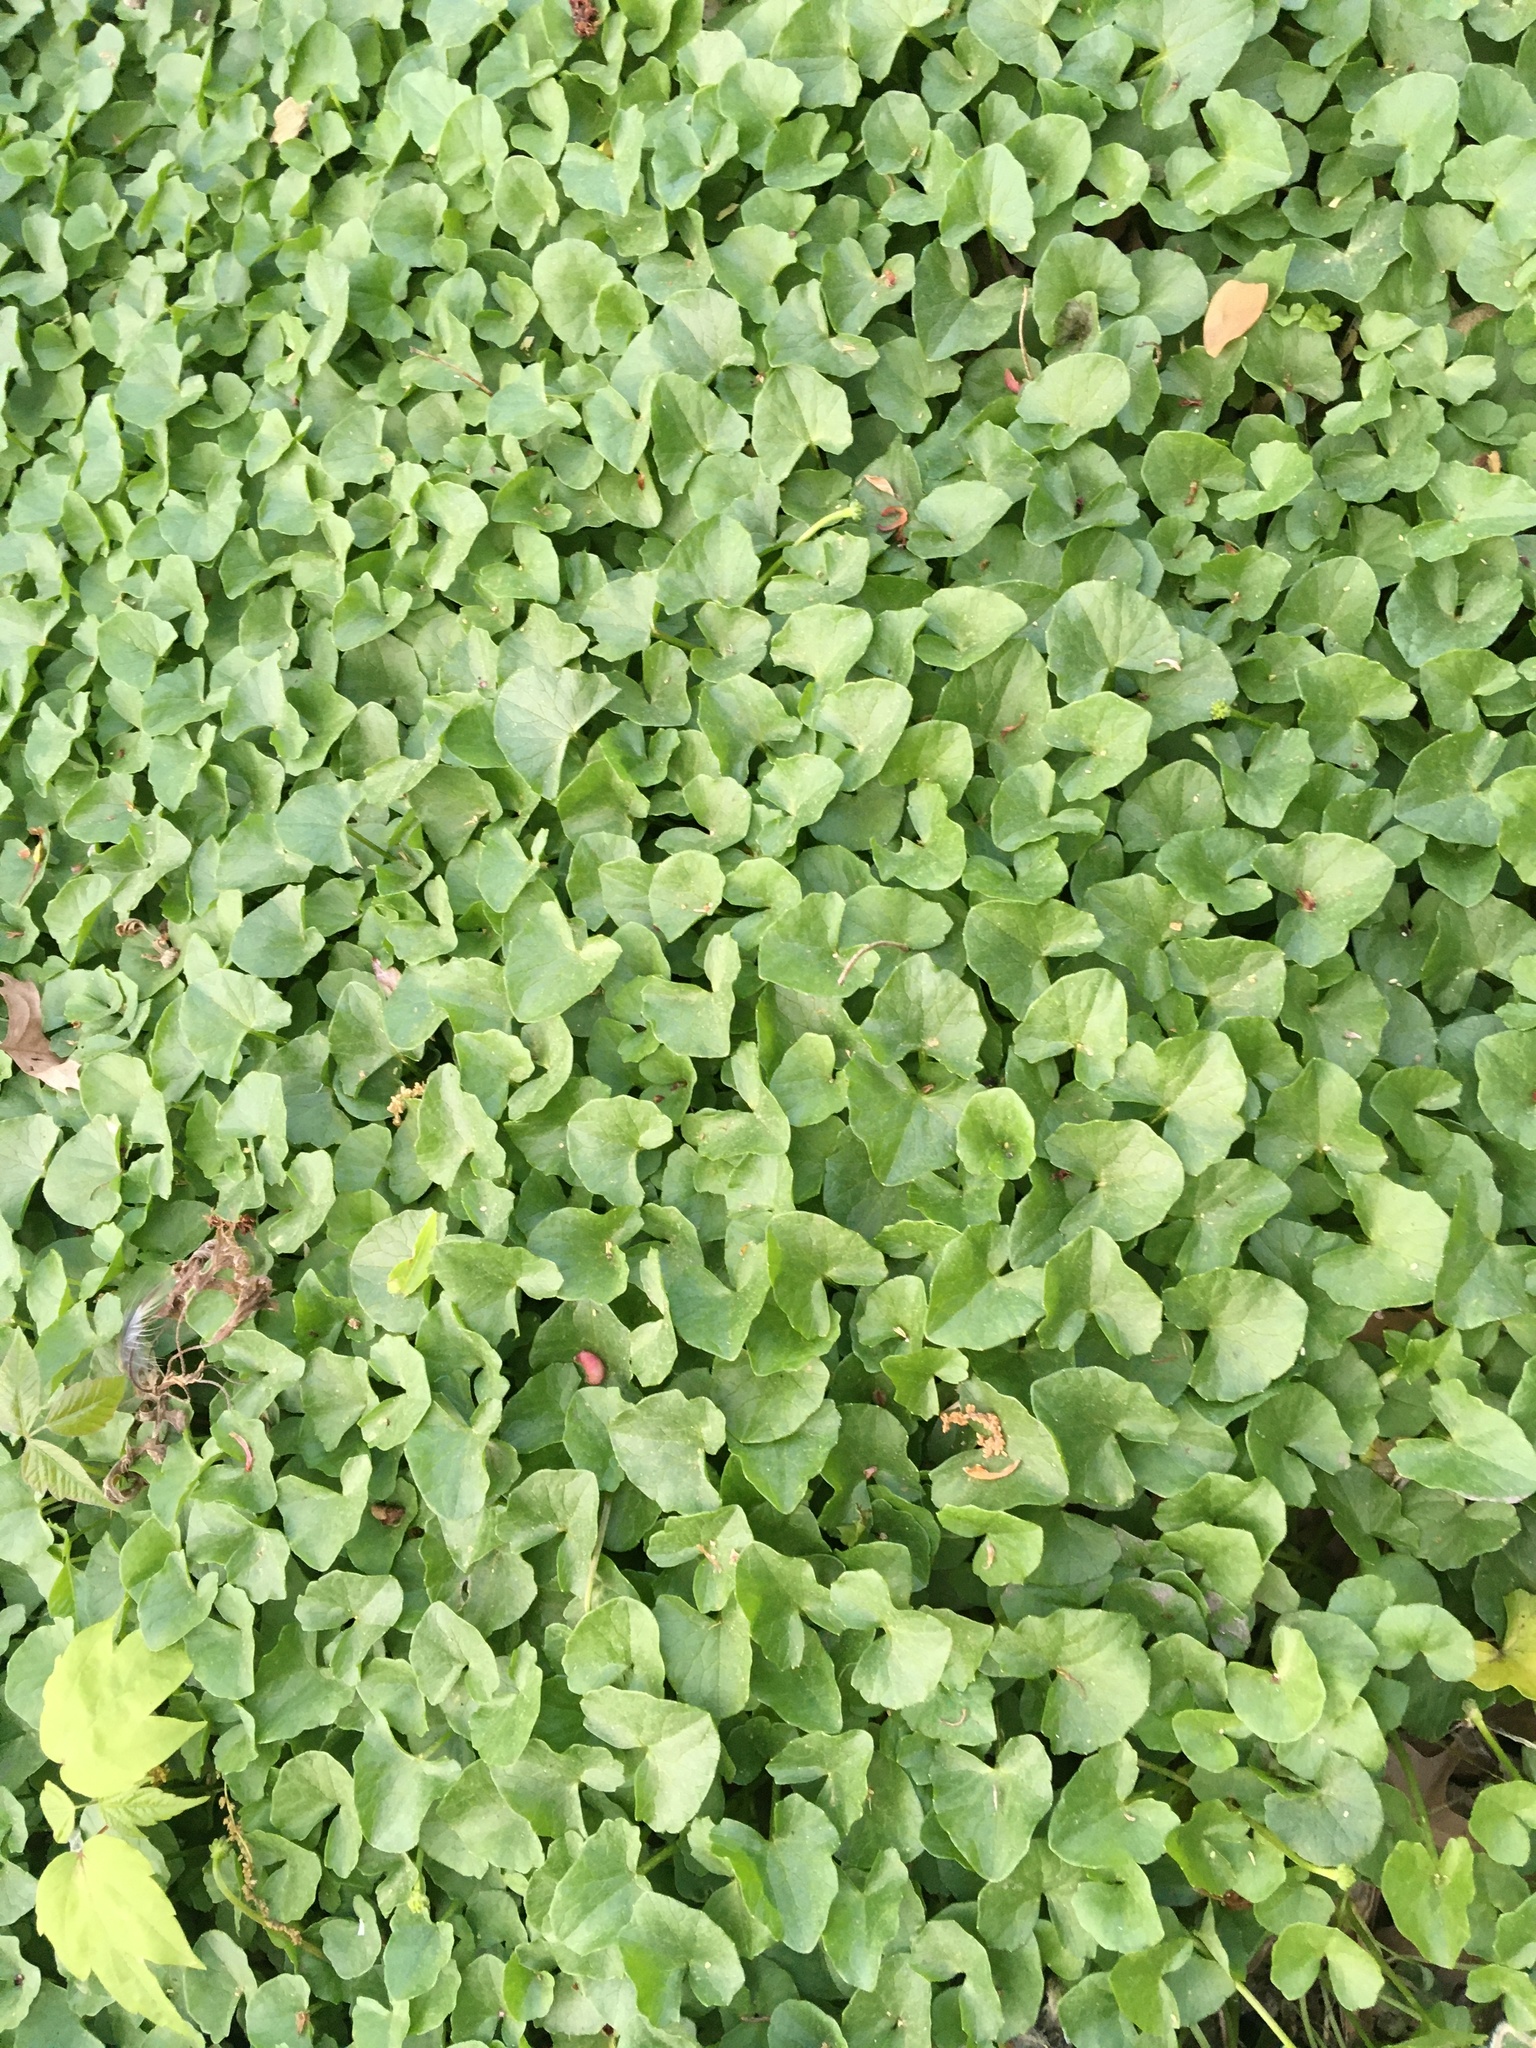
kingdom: Plantae
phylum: Tracheophyta
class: Magnoliopsida
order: Ranunculales
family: Ranunculaceae
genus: Ficaria
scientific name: Ficaria verna
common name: Lesser celandine
